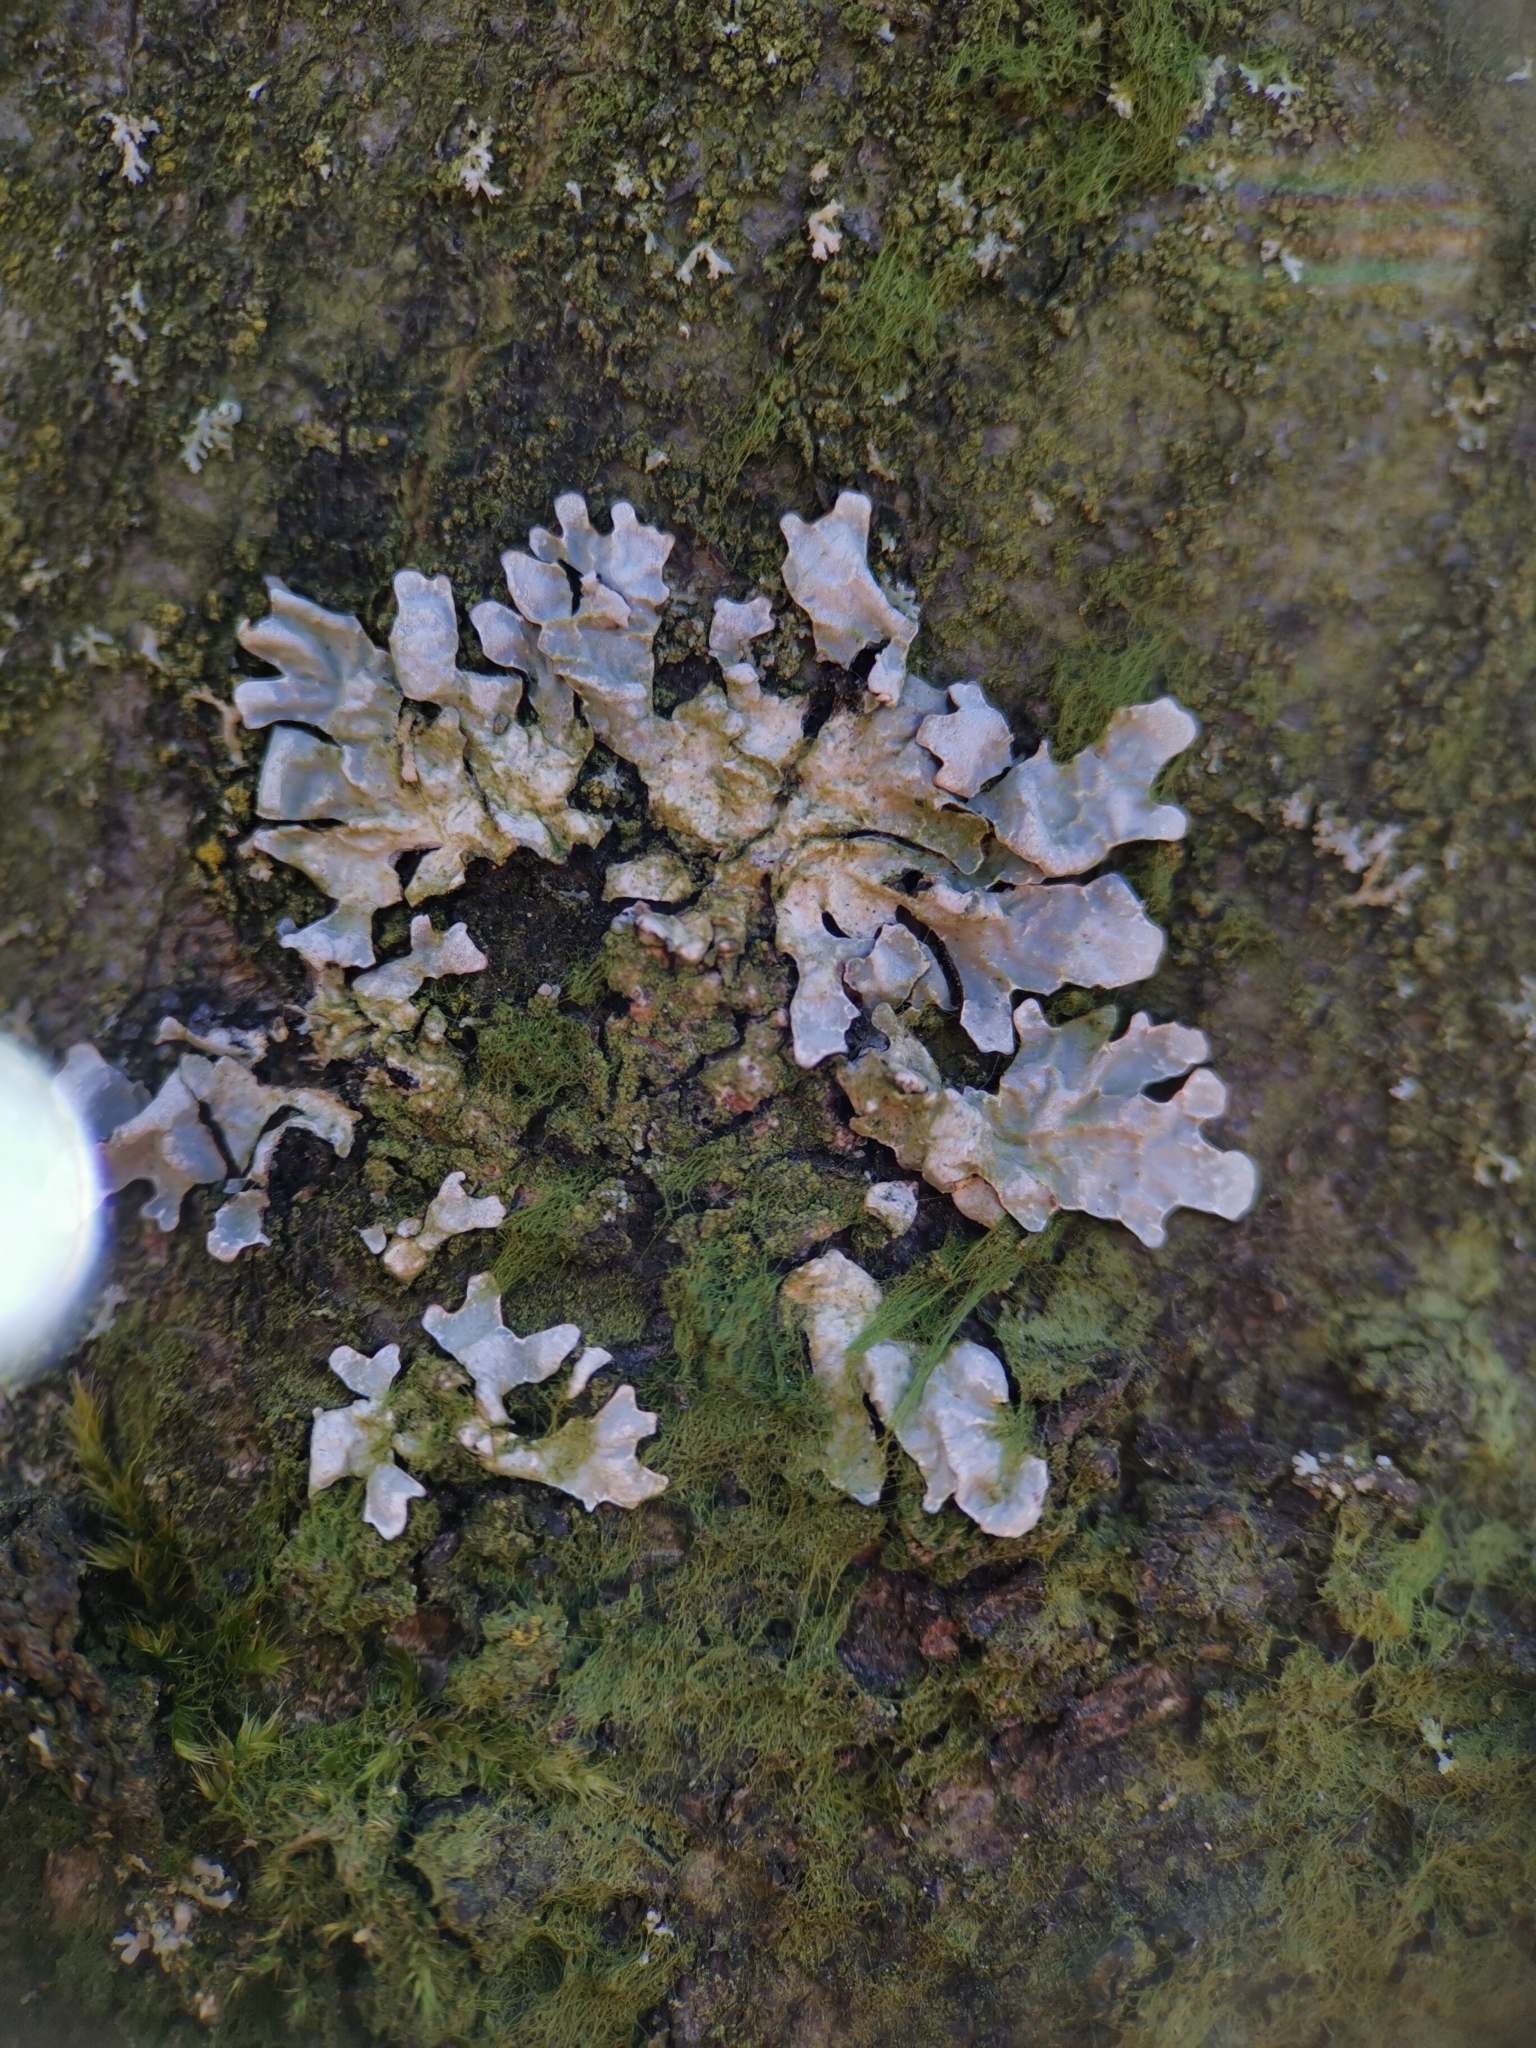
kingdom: Fungi
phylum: Ascomycota
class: Lecanoromycetes
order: Lecanorales
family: Parmeliaceae
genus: Parmelia
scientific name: Parmelia sulcata
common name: Netted shield lichen
